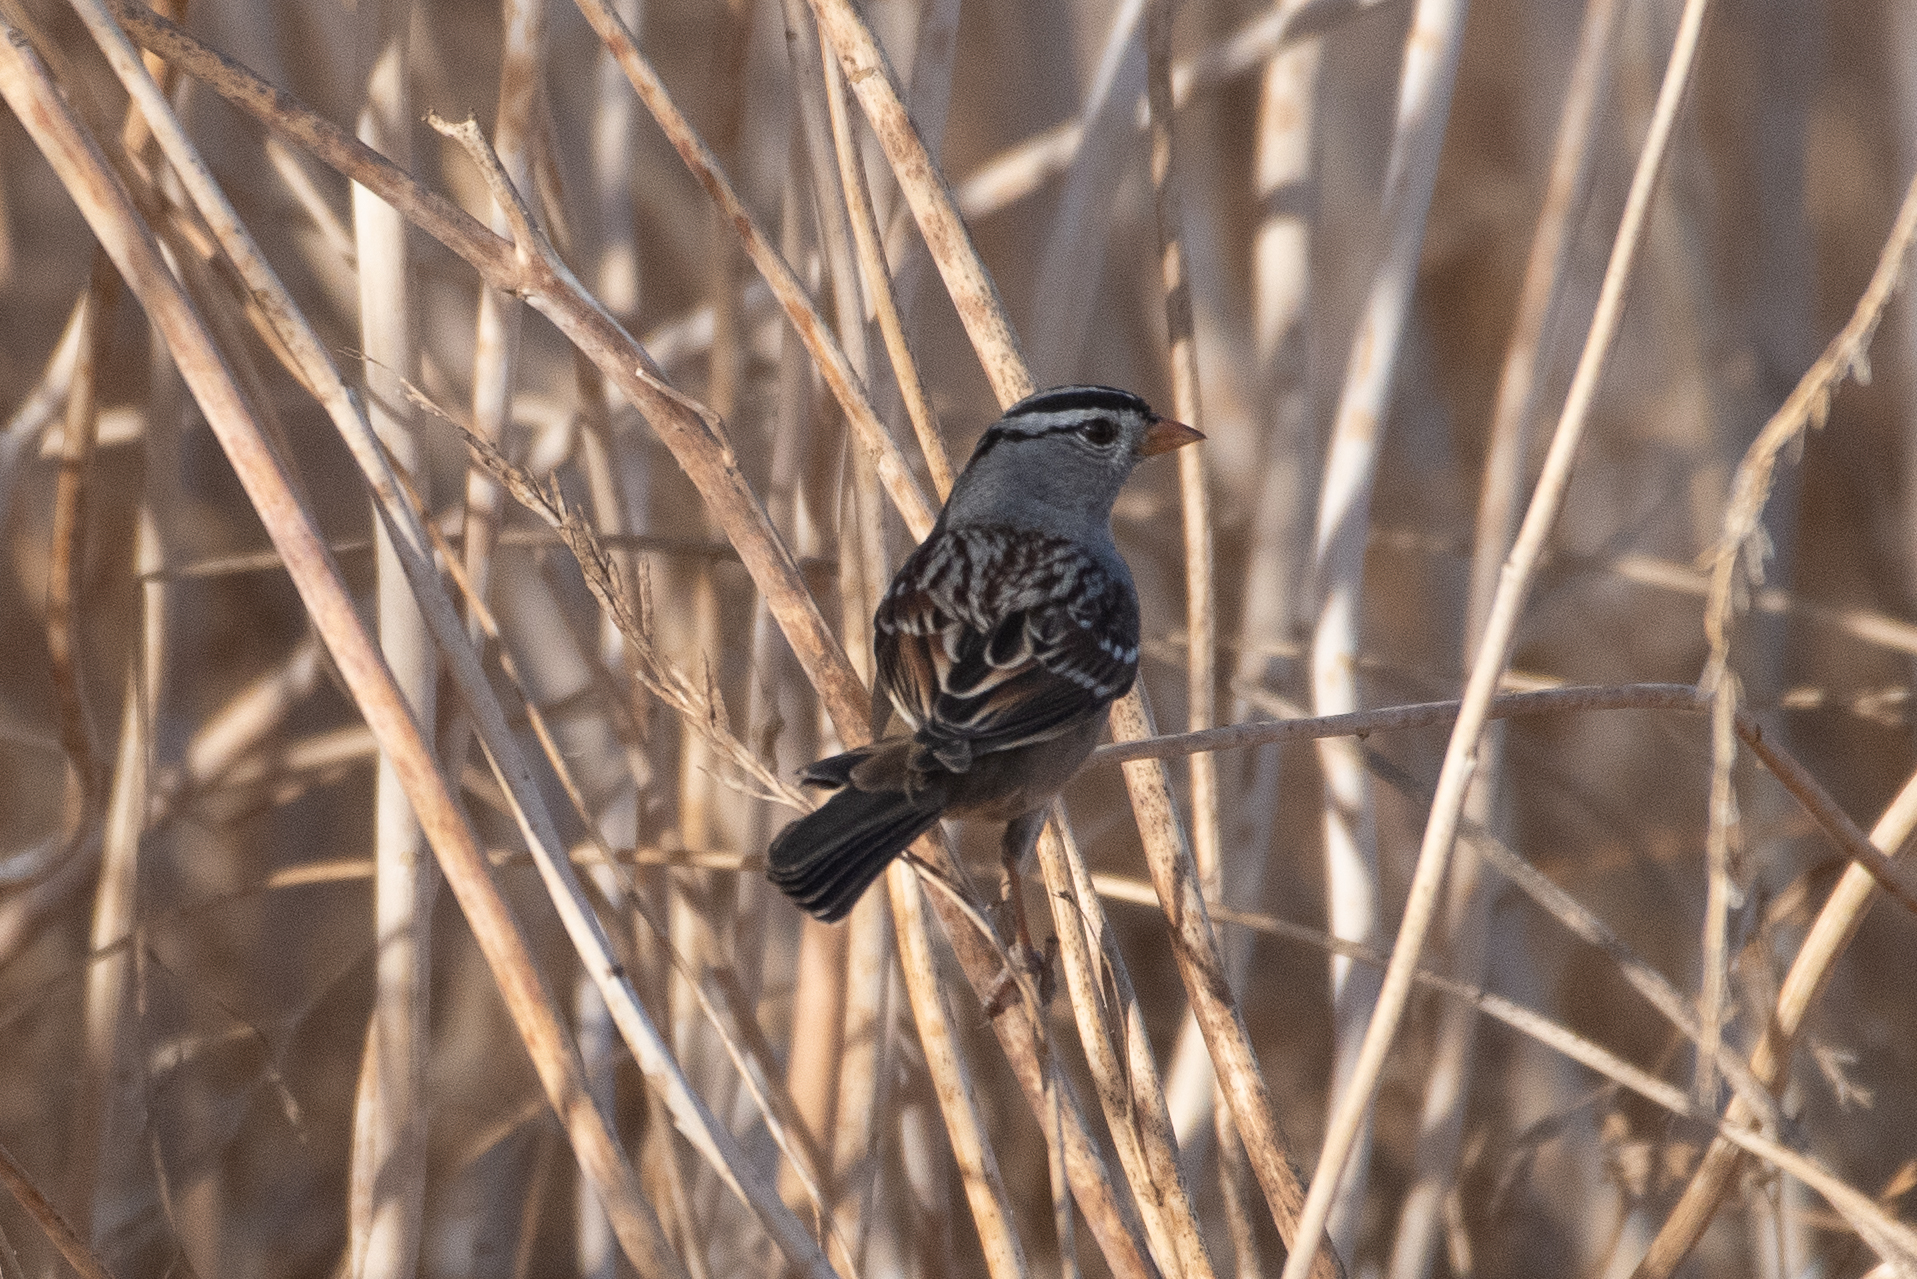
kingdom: Animalia
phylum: Chordata
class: Aves
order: Passeriformes
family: Passerellidae
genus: Zonotrichia
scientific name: Zonotrichia leucophrys
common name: White-crowned sparrow
